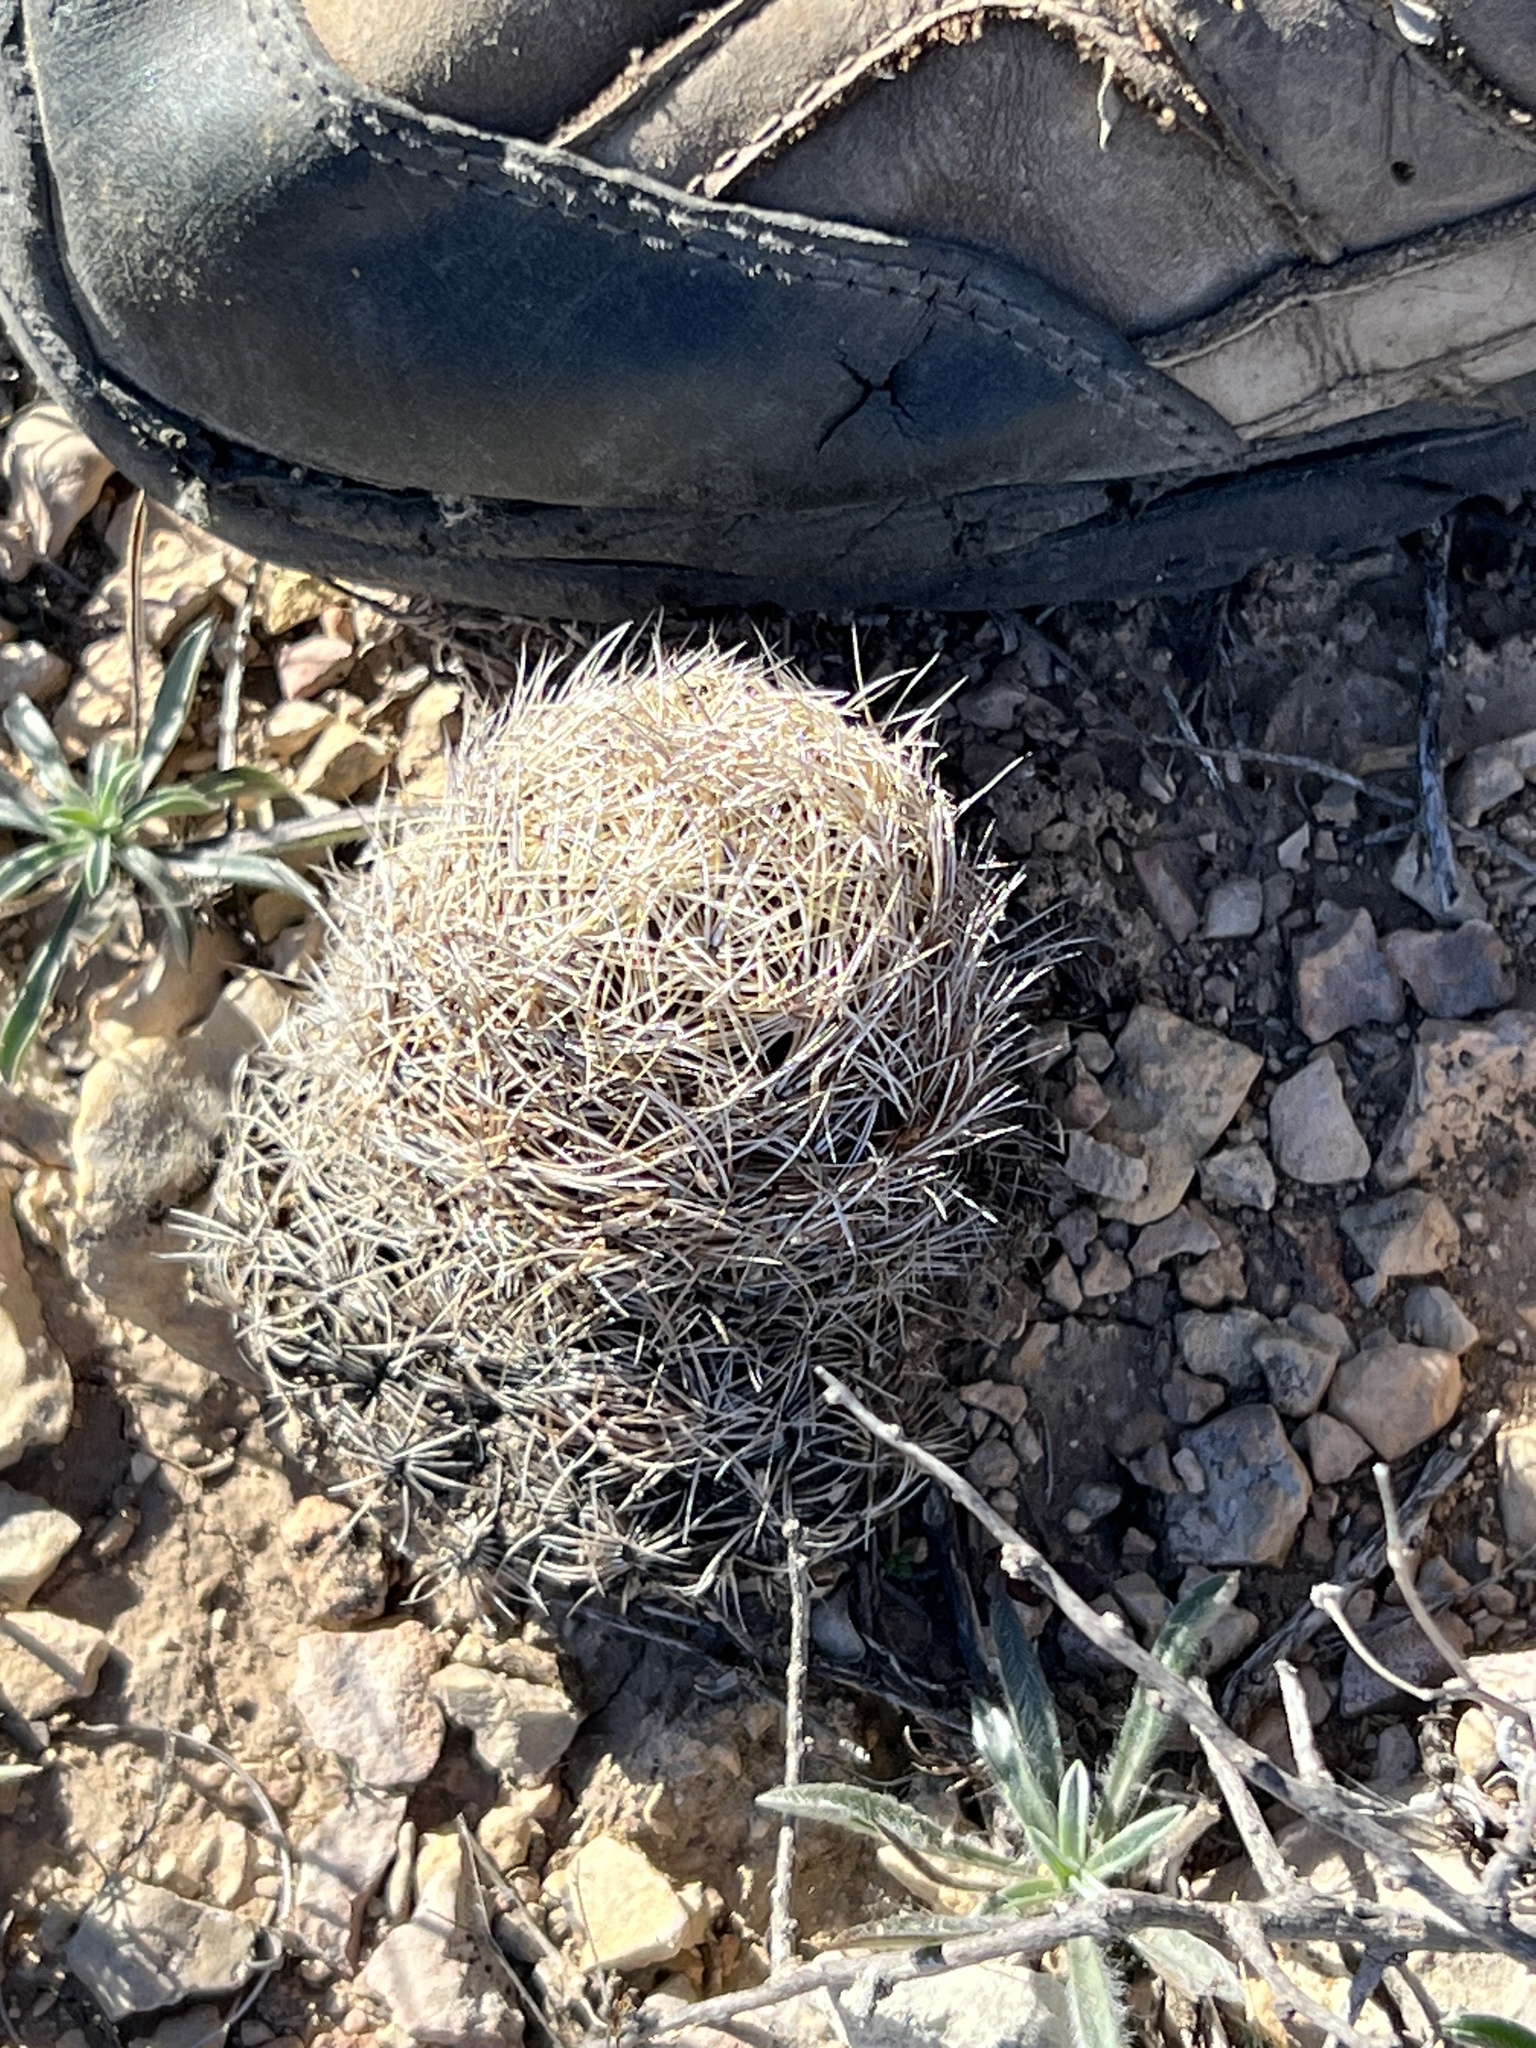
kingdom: Plantae
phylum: Tracheophyta
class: Magnoliopsida
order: Caryophyllales
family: Cactaceae
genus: Coryphantha
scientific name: Coryphantha echinus
